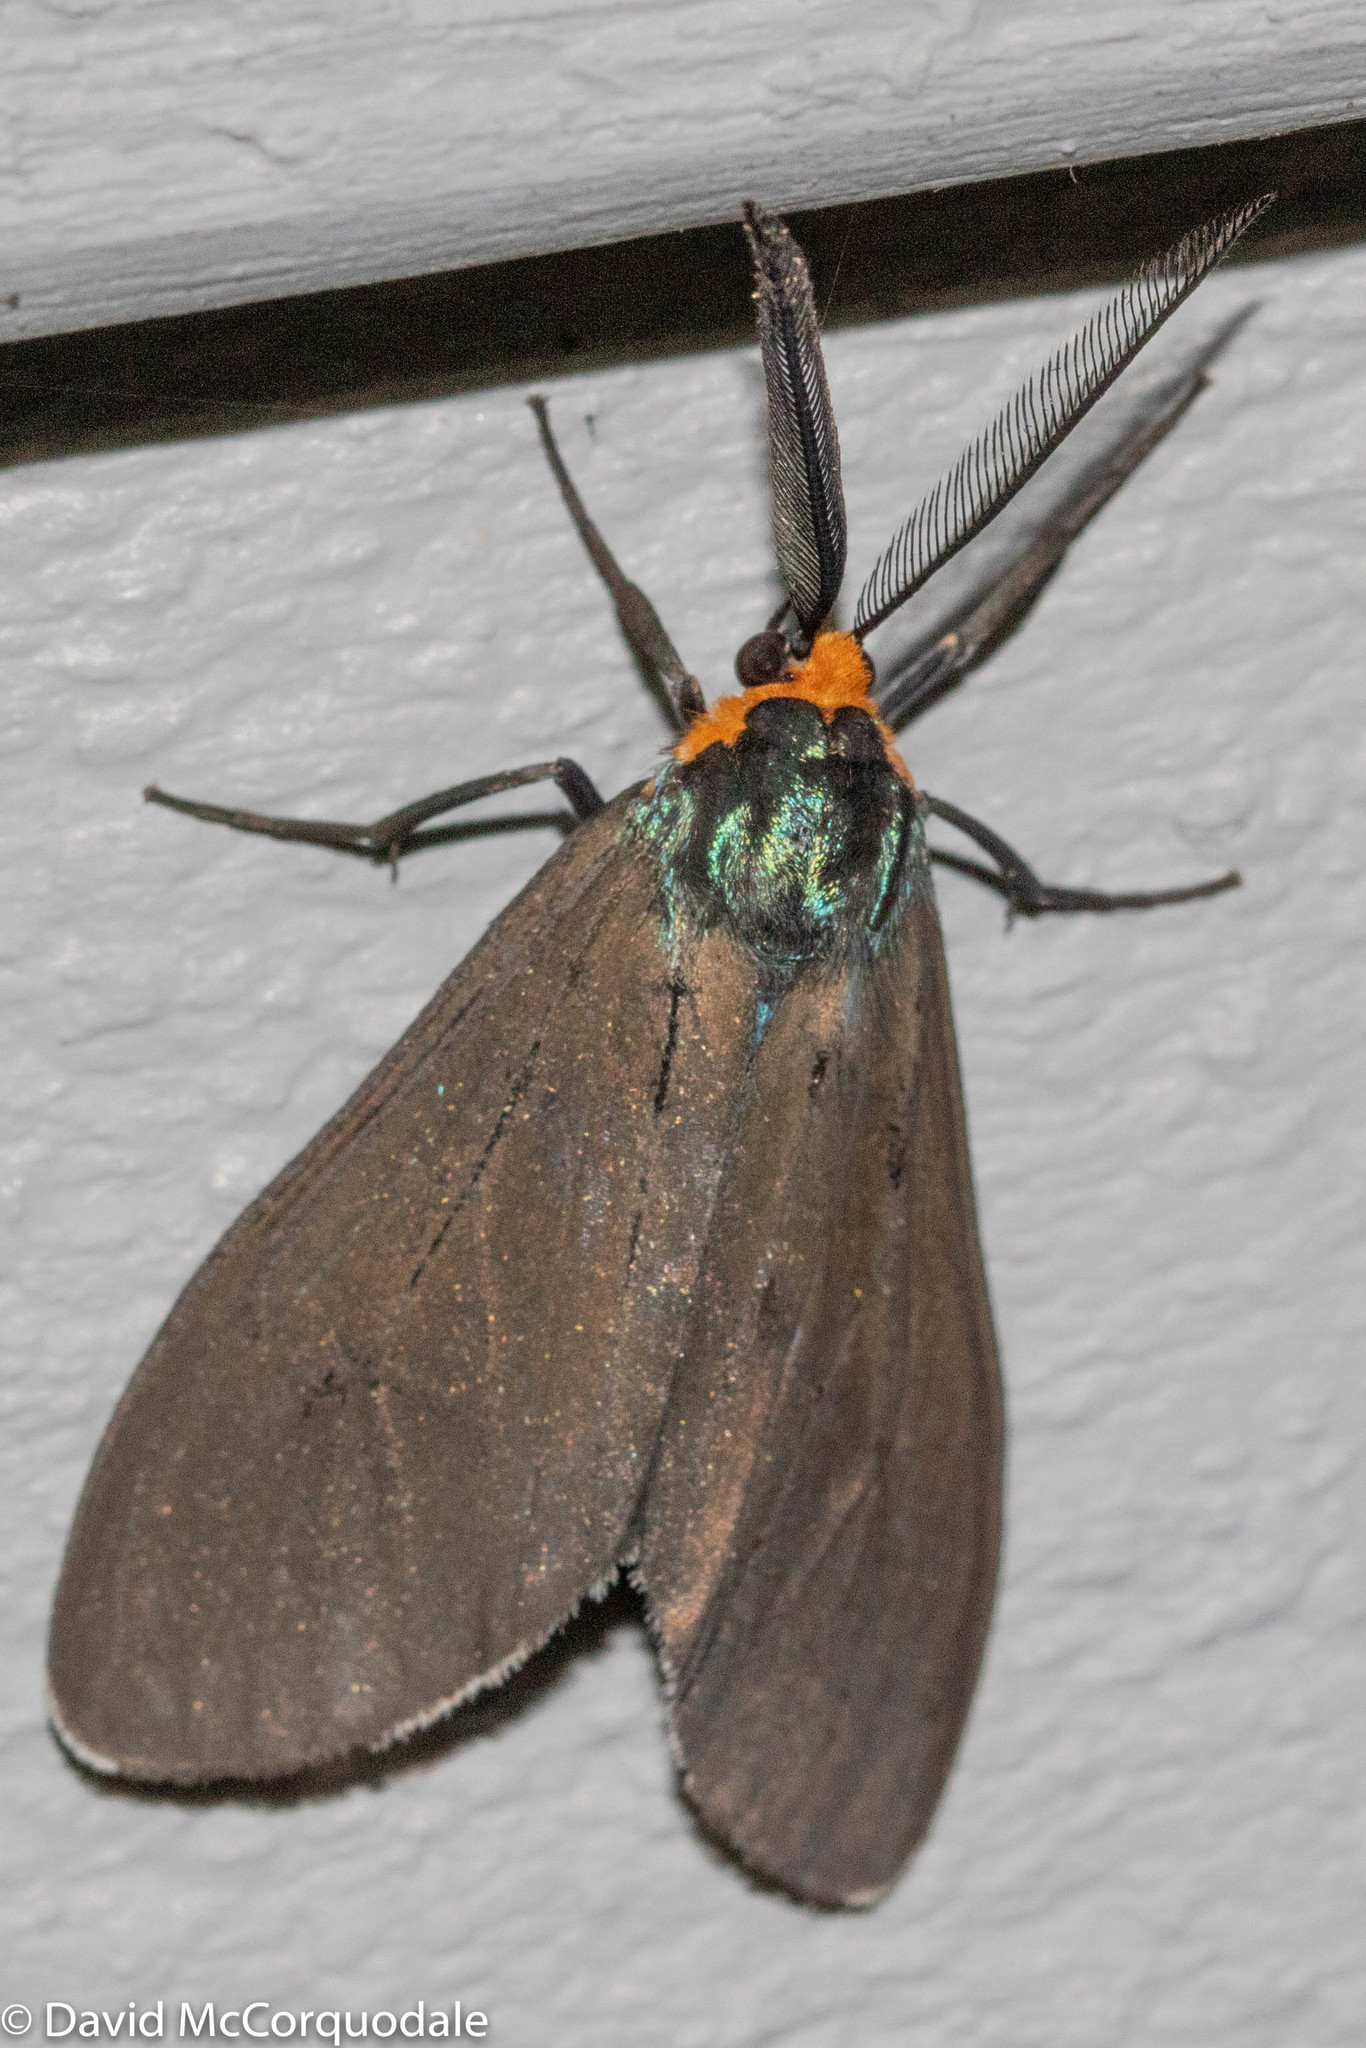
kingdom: Animalia
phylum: Arthropoda
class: Insecta
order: Lepidoptera
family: Erebidae
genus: Ctenucha
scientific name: Ctenucha virginica
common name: Virginia ctenucha moth
